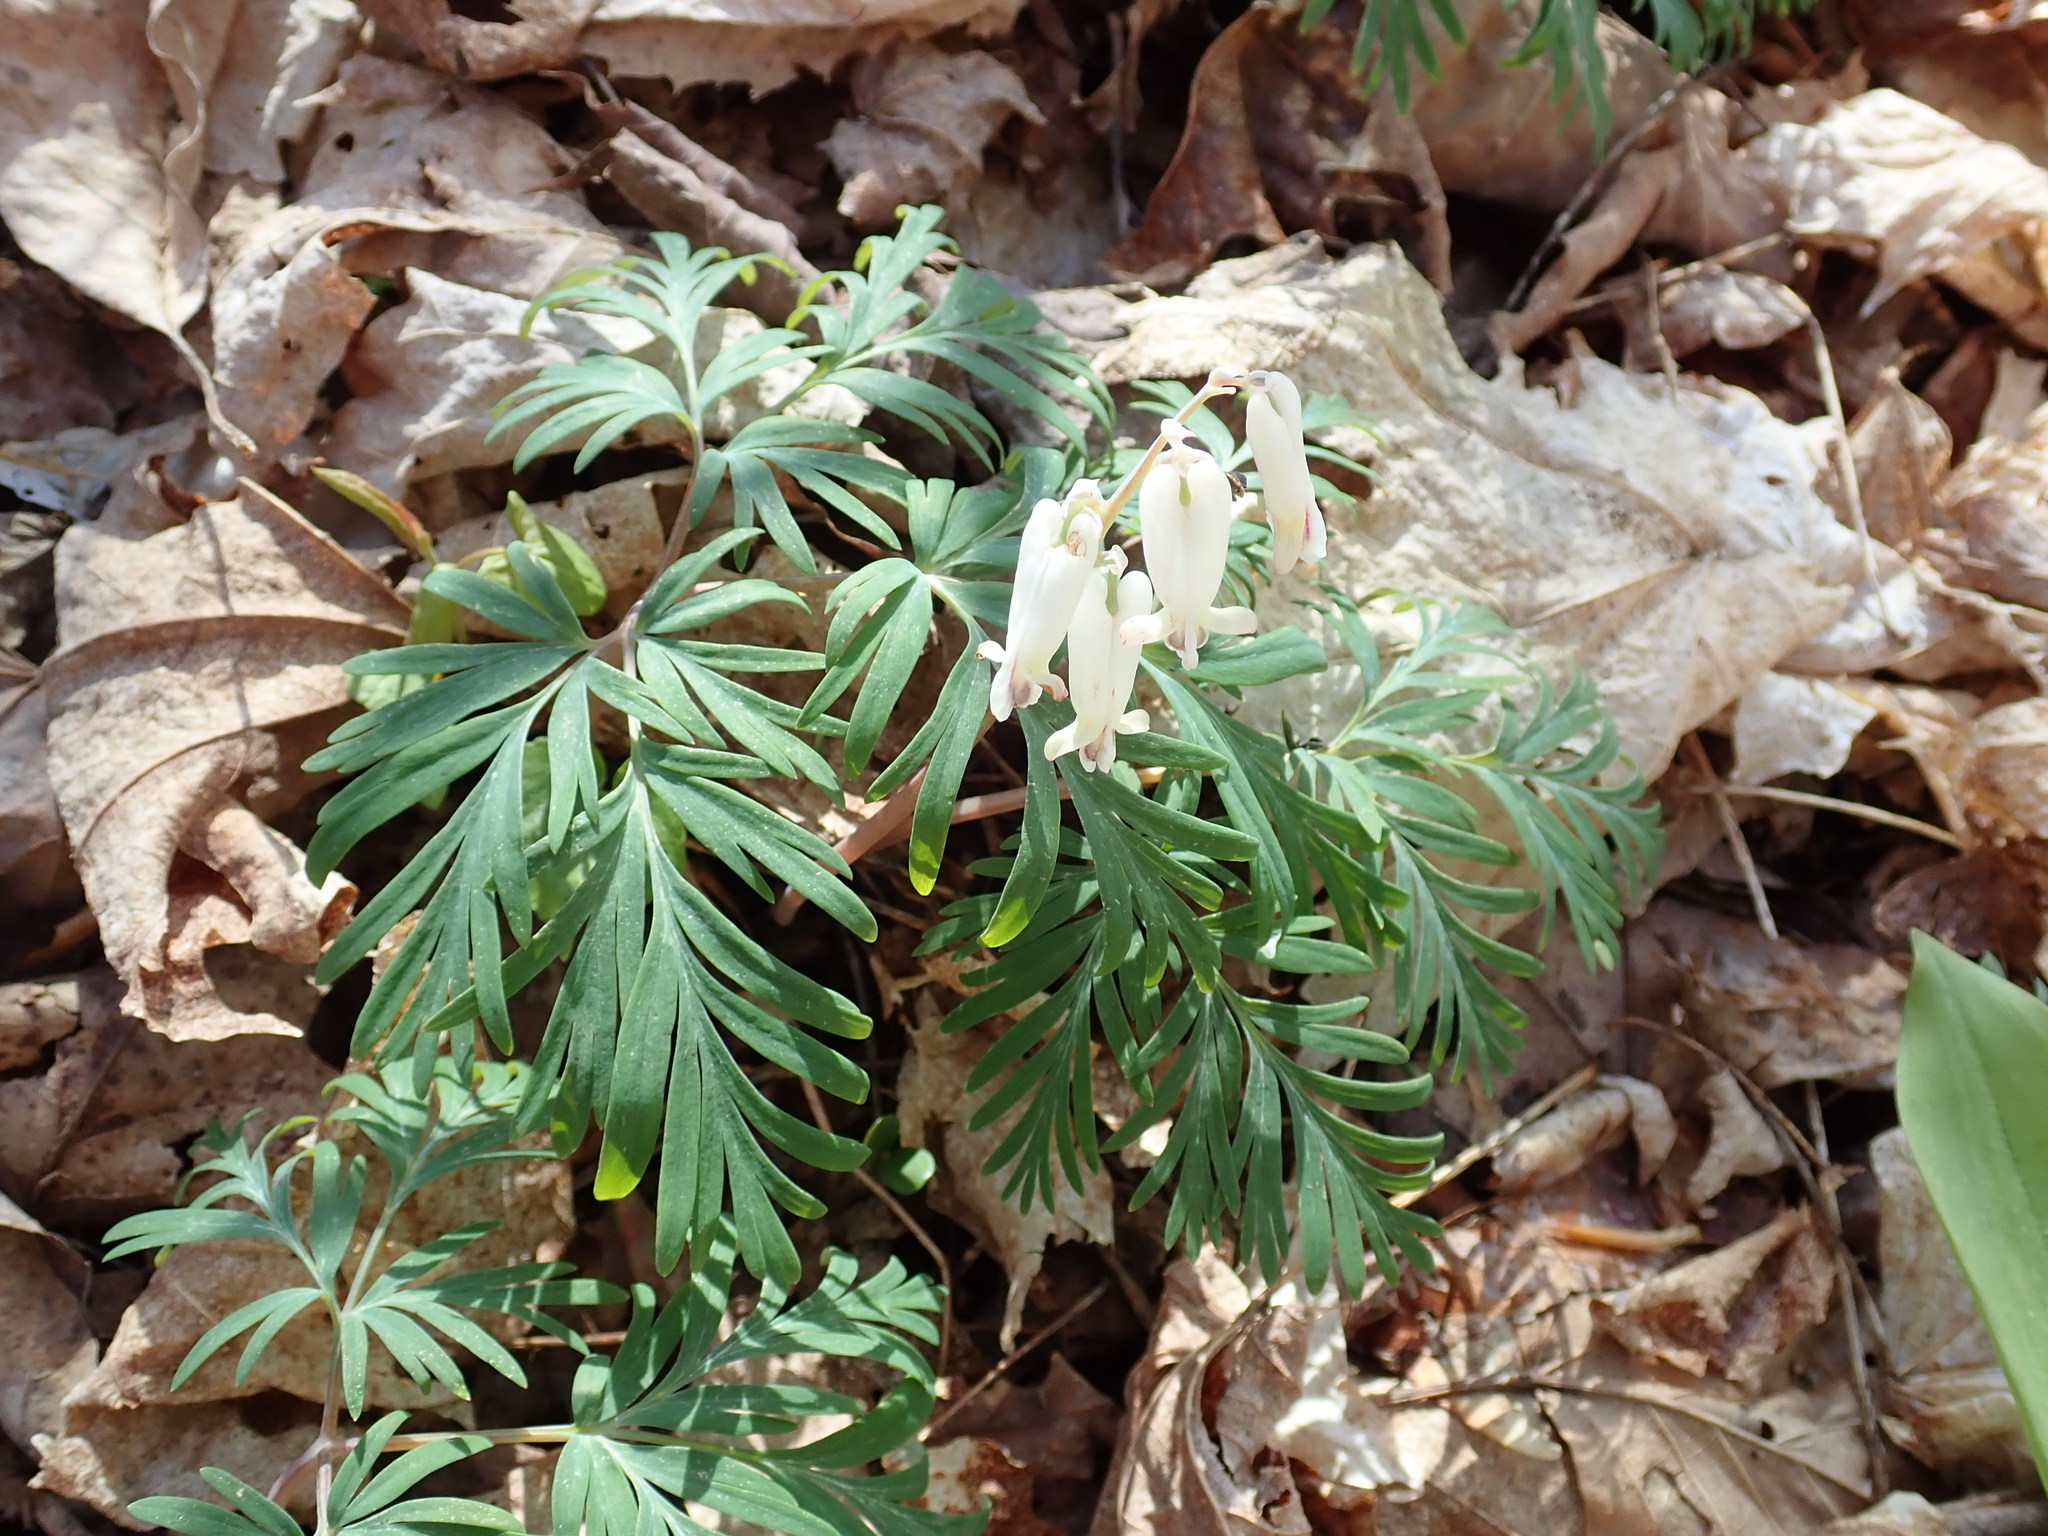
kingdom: Plantae
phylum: Tracheophyta
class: Magnoliopsida
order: Ranunculales
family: Papaveraceae
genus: Dicentra
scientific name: Dicentra canadensis
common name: Squirrel-corn
